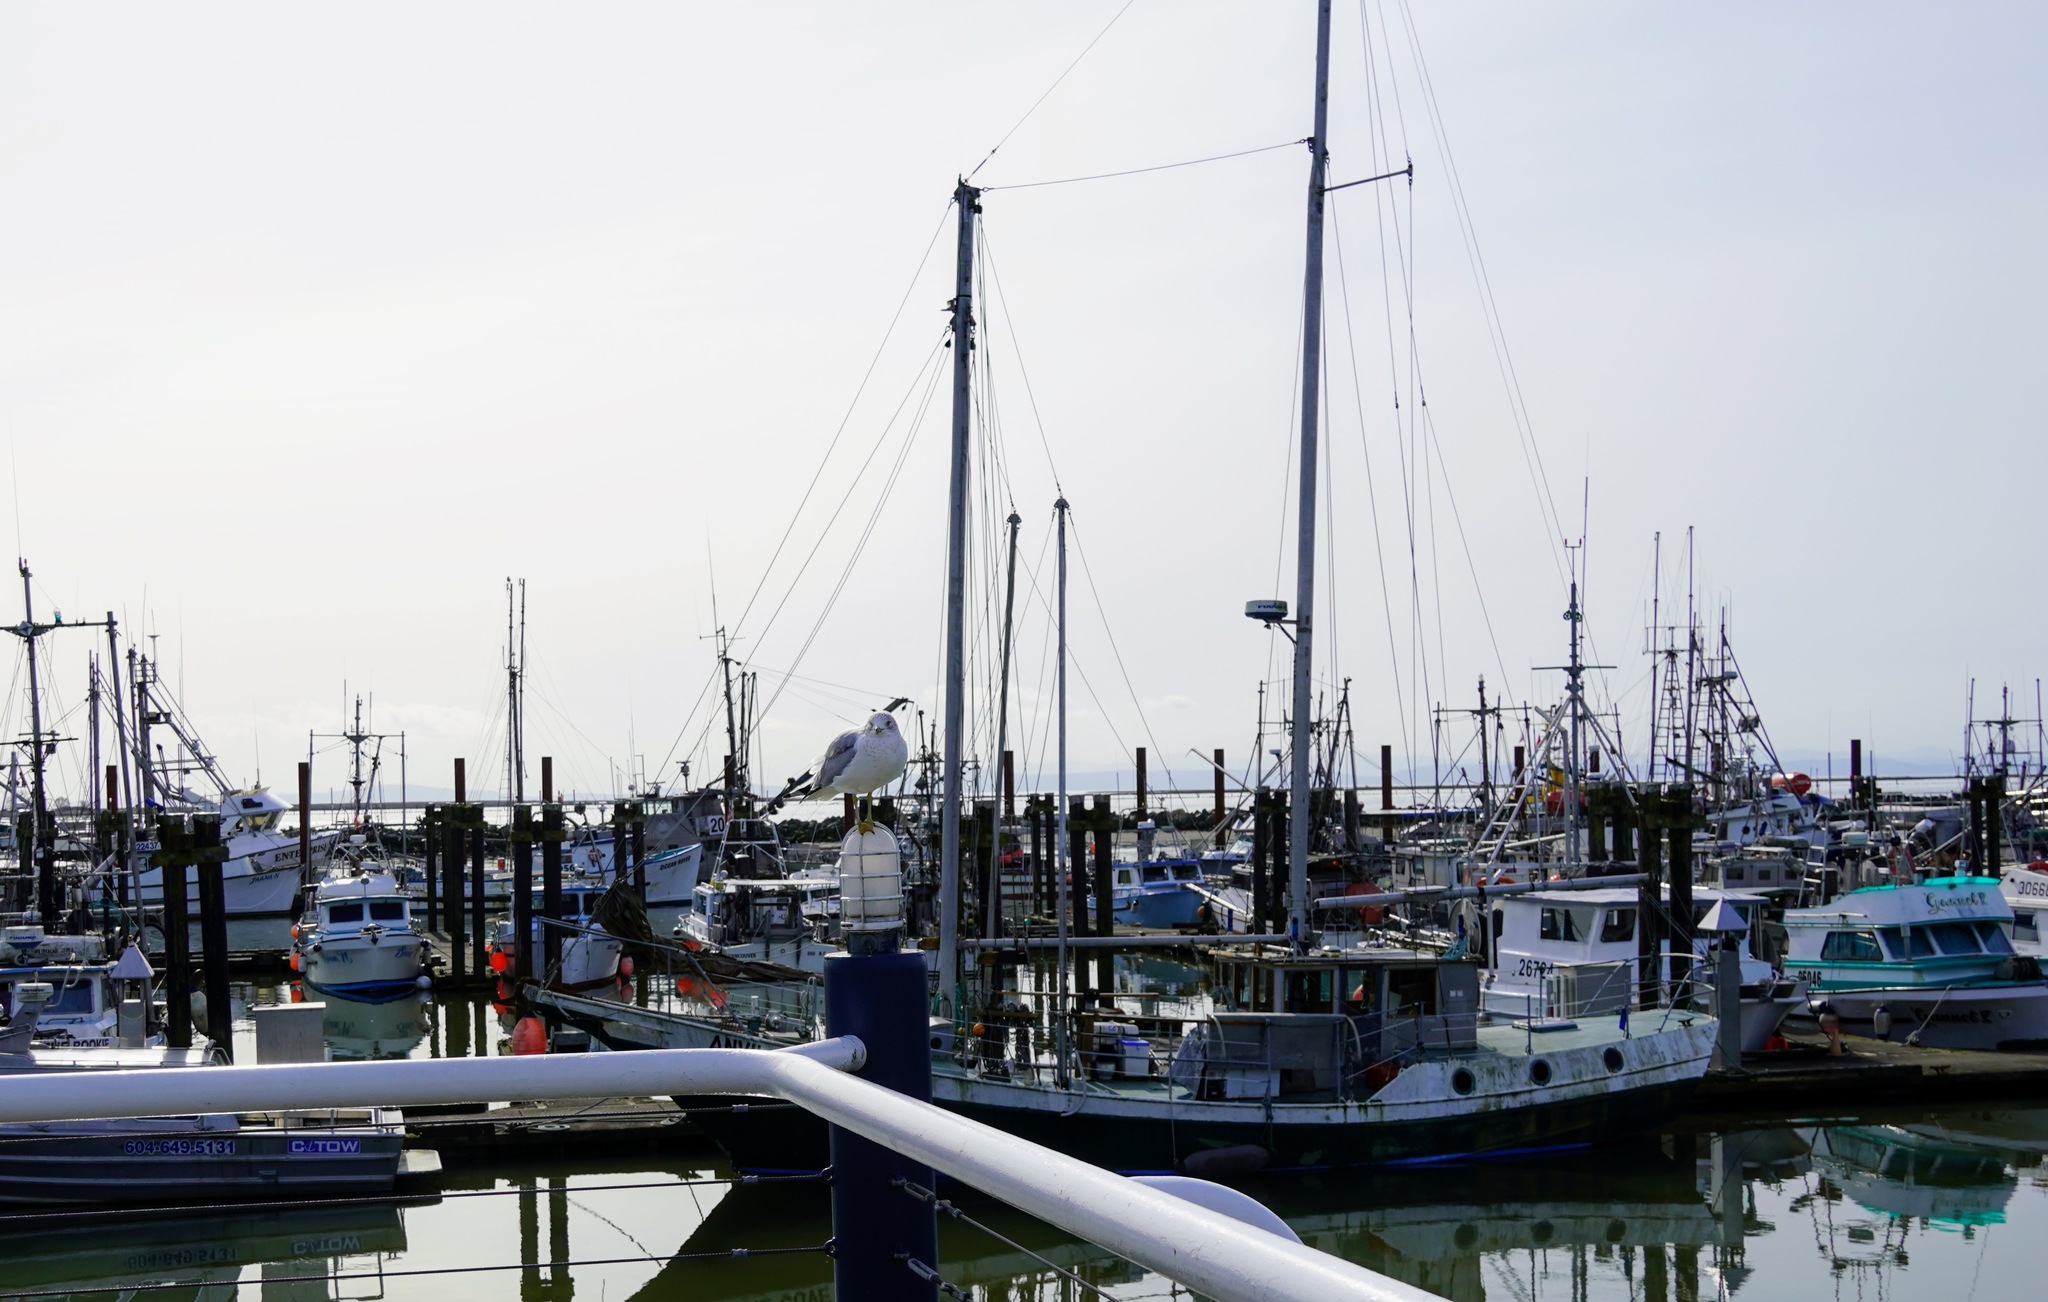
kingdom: Animalia
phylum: Chordata
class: Aves
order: Charadriiformes
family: Laridae
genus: Larus
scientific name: Larus delawarensis
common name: Ring-billed gull
